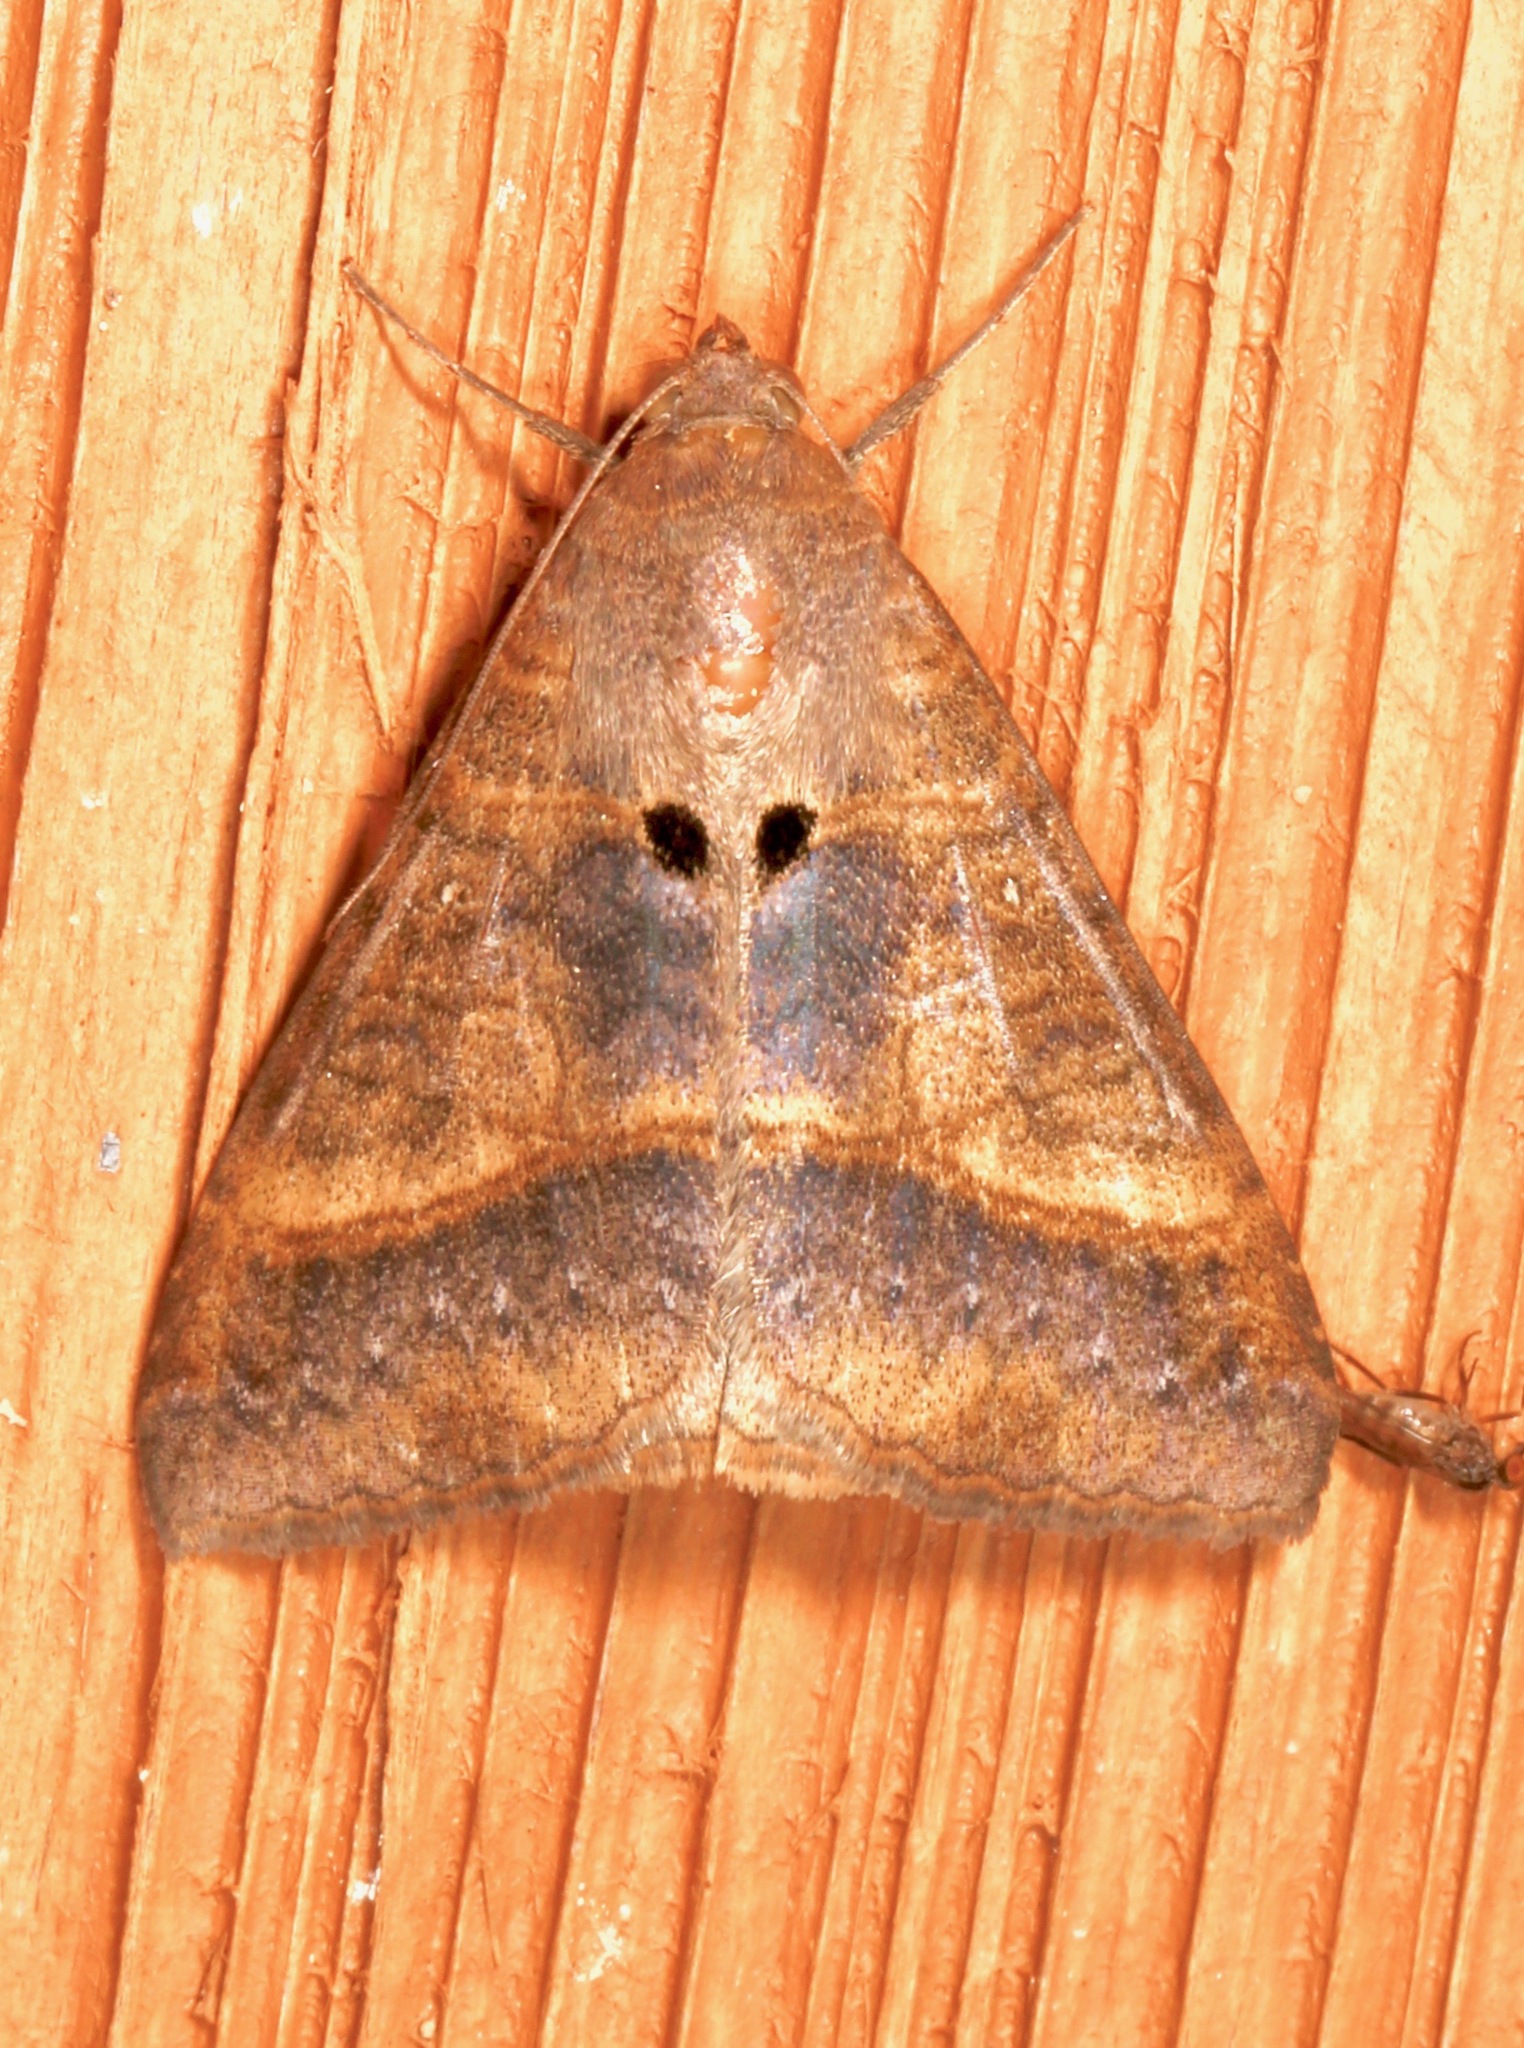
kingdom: Animalia
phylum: Arthropoda
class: Insecta
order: Lepidoptera
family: Erebidae
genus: Mocis
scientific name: Mocis latipes
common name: Striped grass looper
